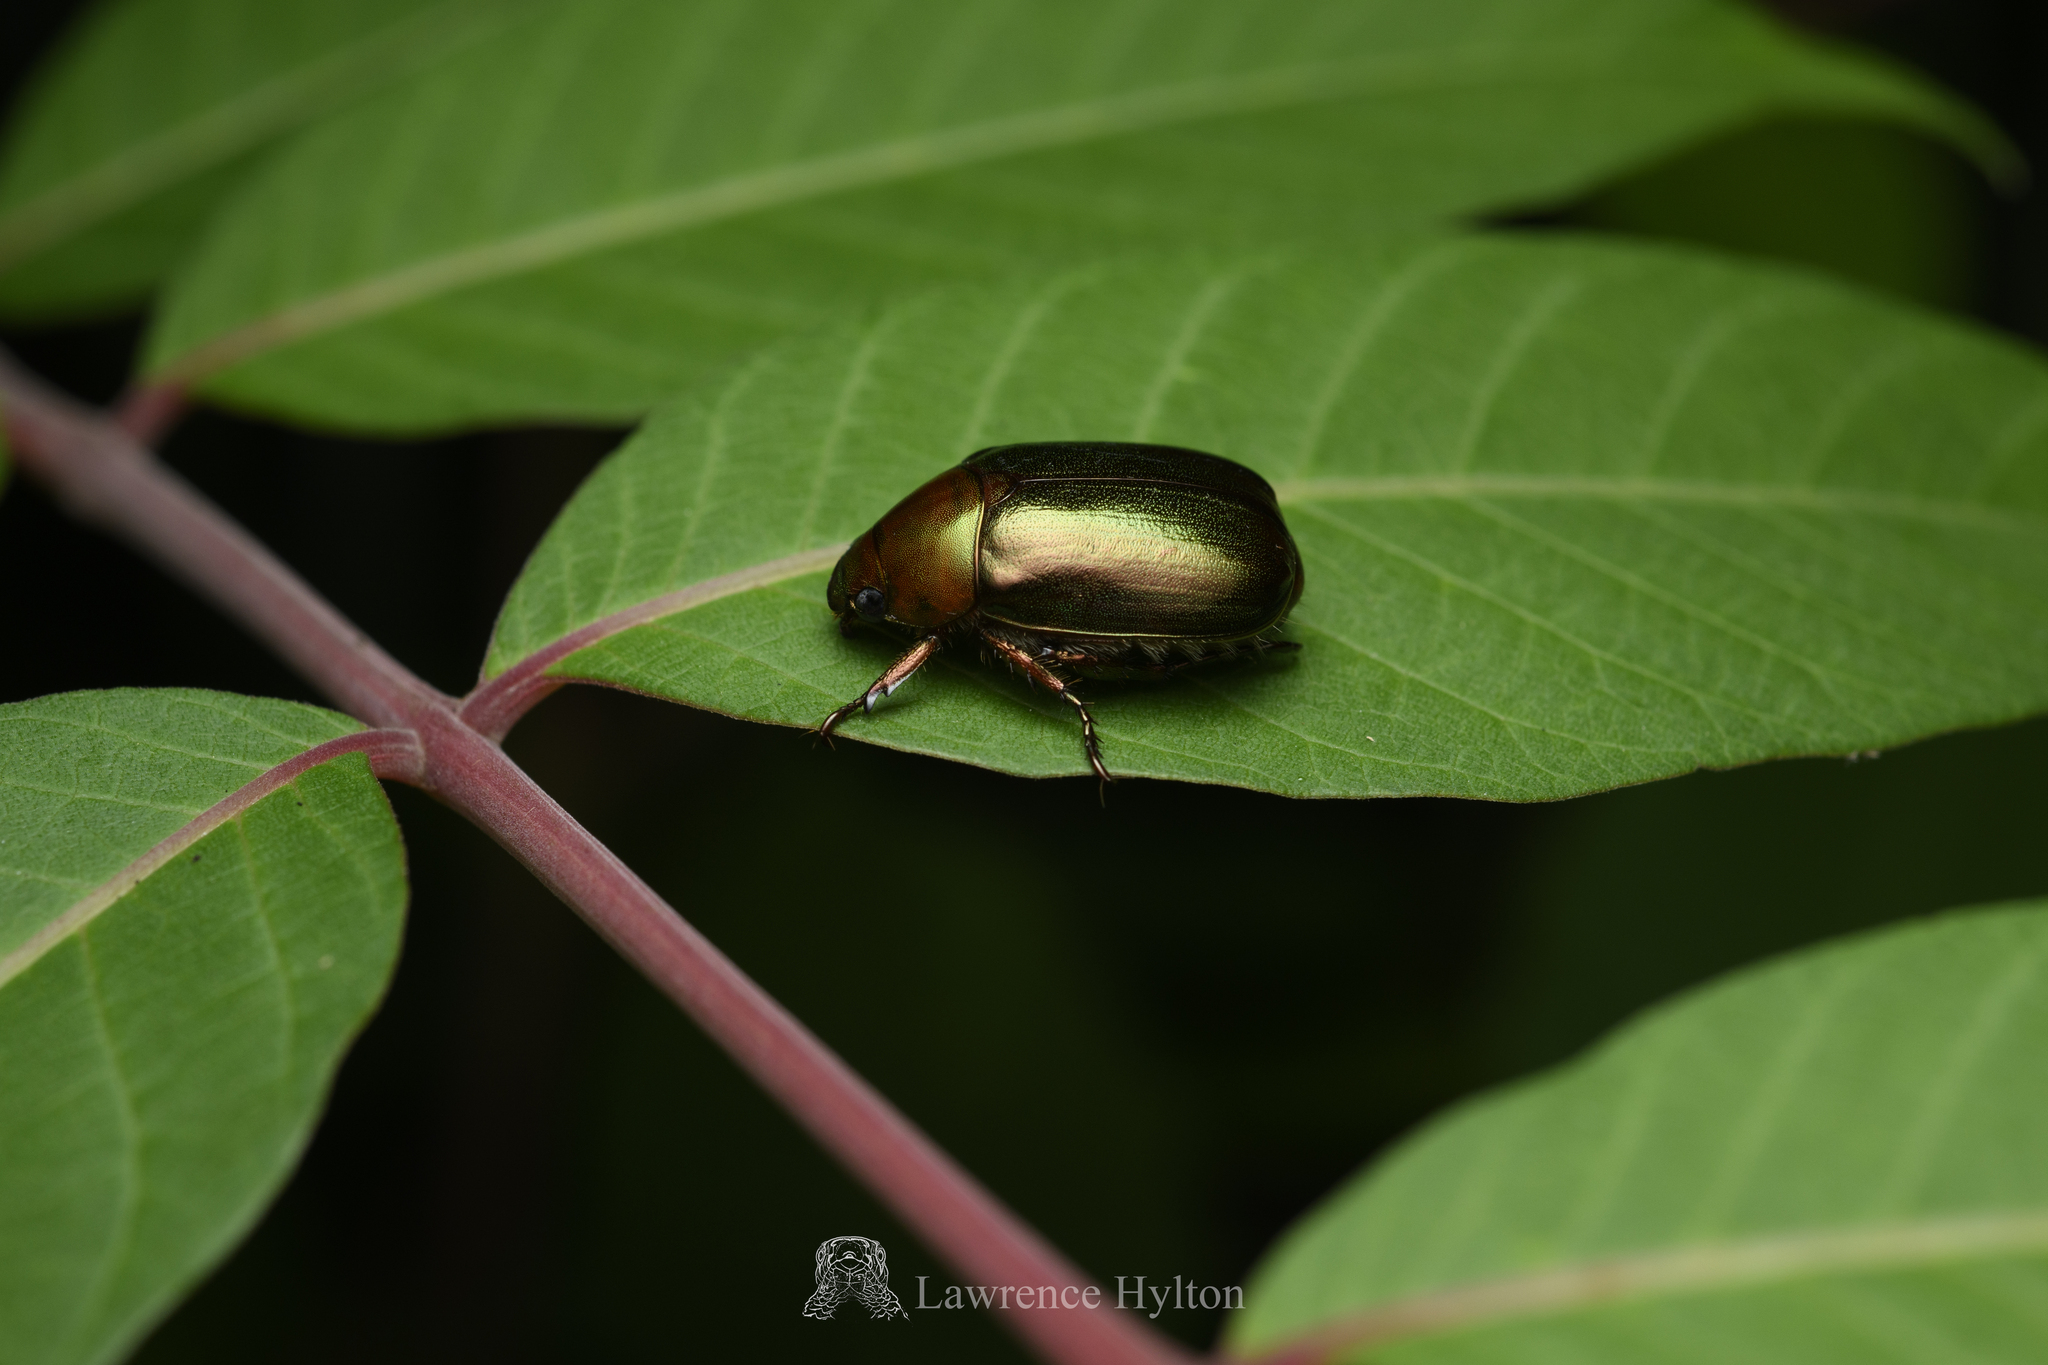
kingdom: Animalia
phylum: Arthropoda
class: Insecta
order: Coleoptera
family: Scarabaeidae
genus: Anomala
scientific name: Anomala russiventris
